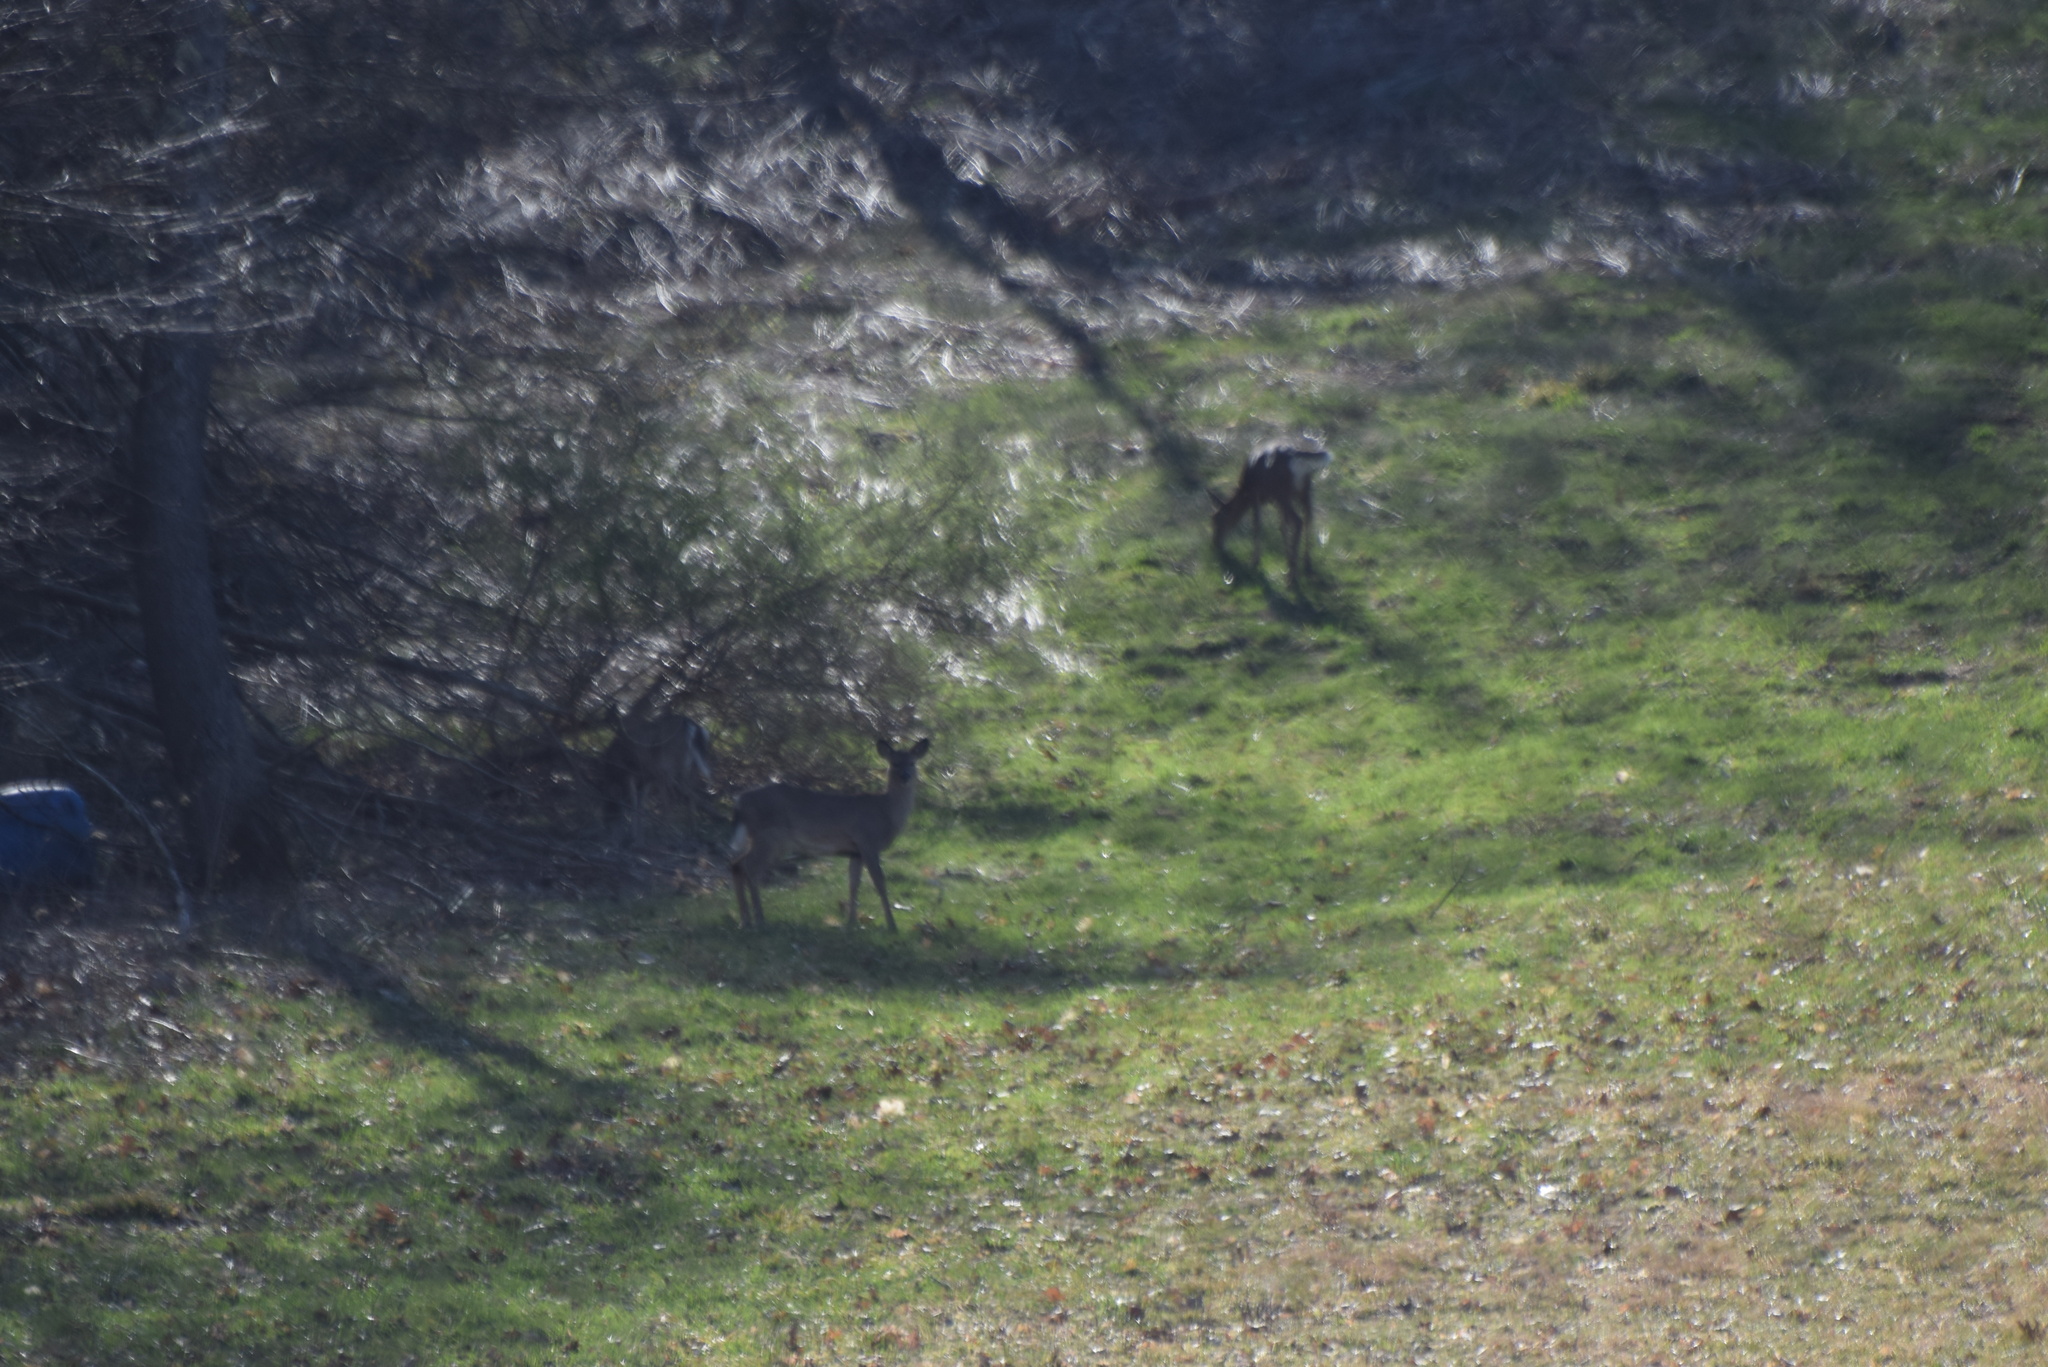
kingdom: Animalia
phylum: Chordata
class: Mammalia
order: Artiodactyla
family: Cervidae
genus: Odocoileus
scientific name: Odocoileus virginianus
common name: White-tailed deer
